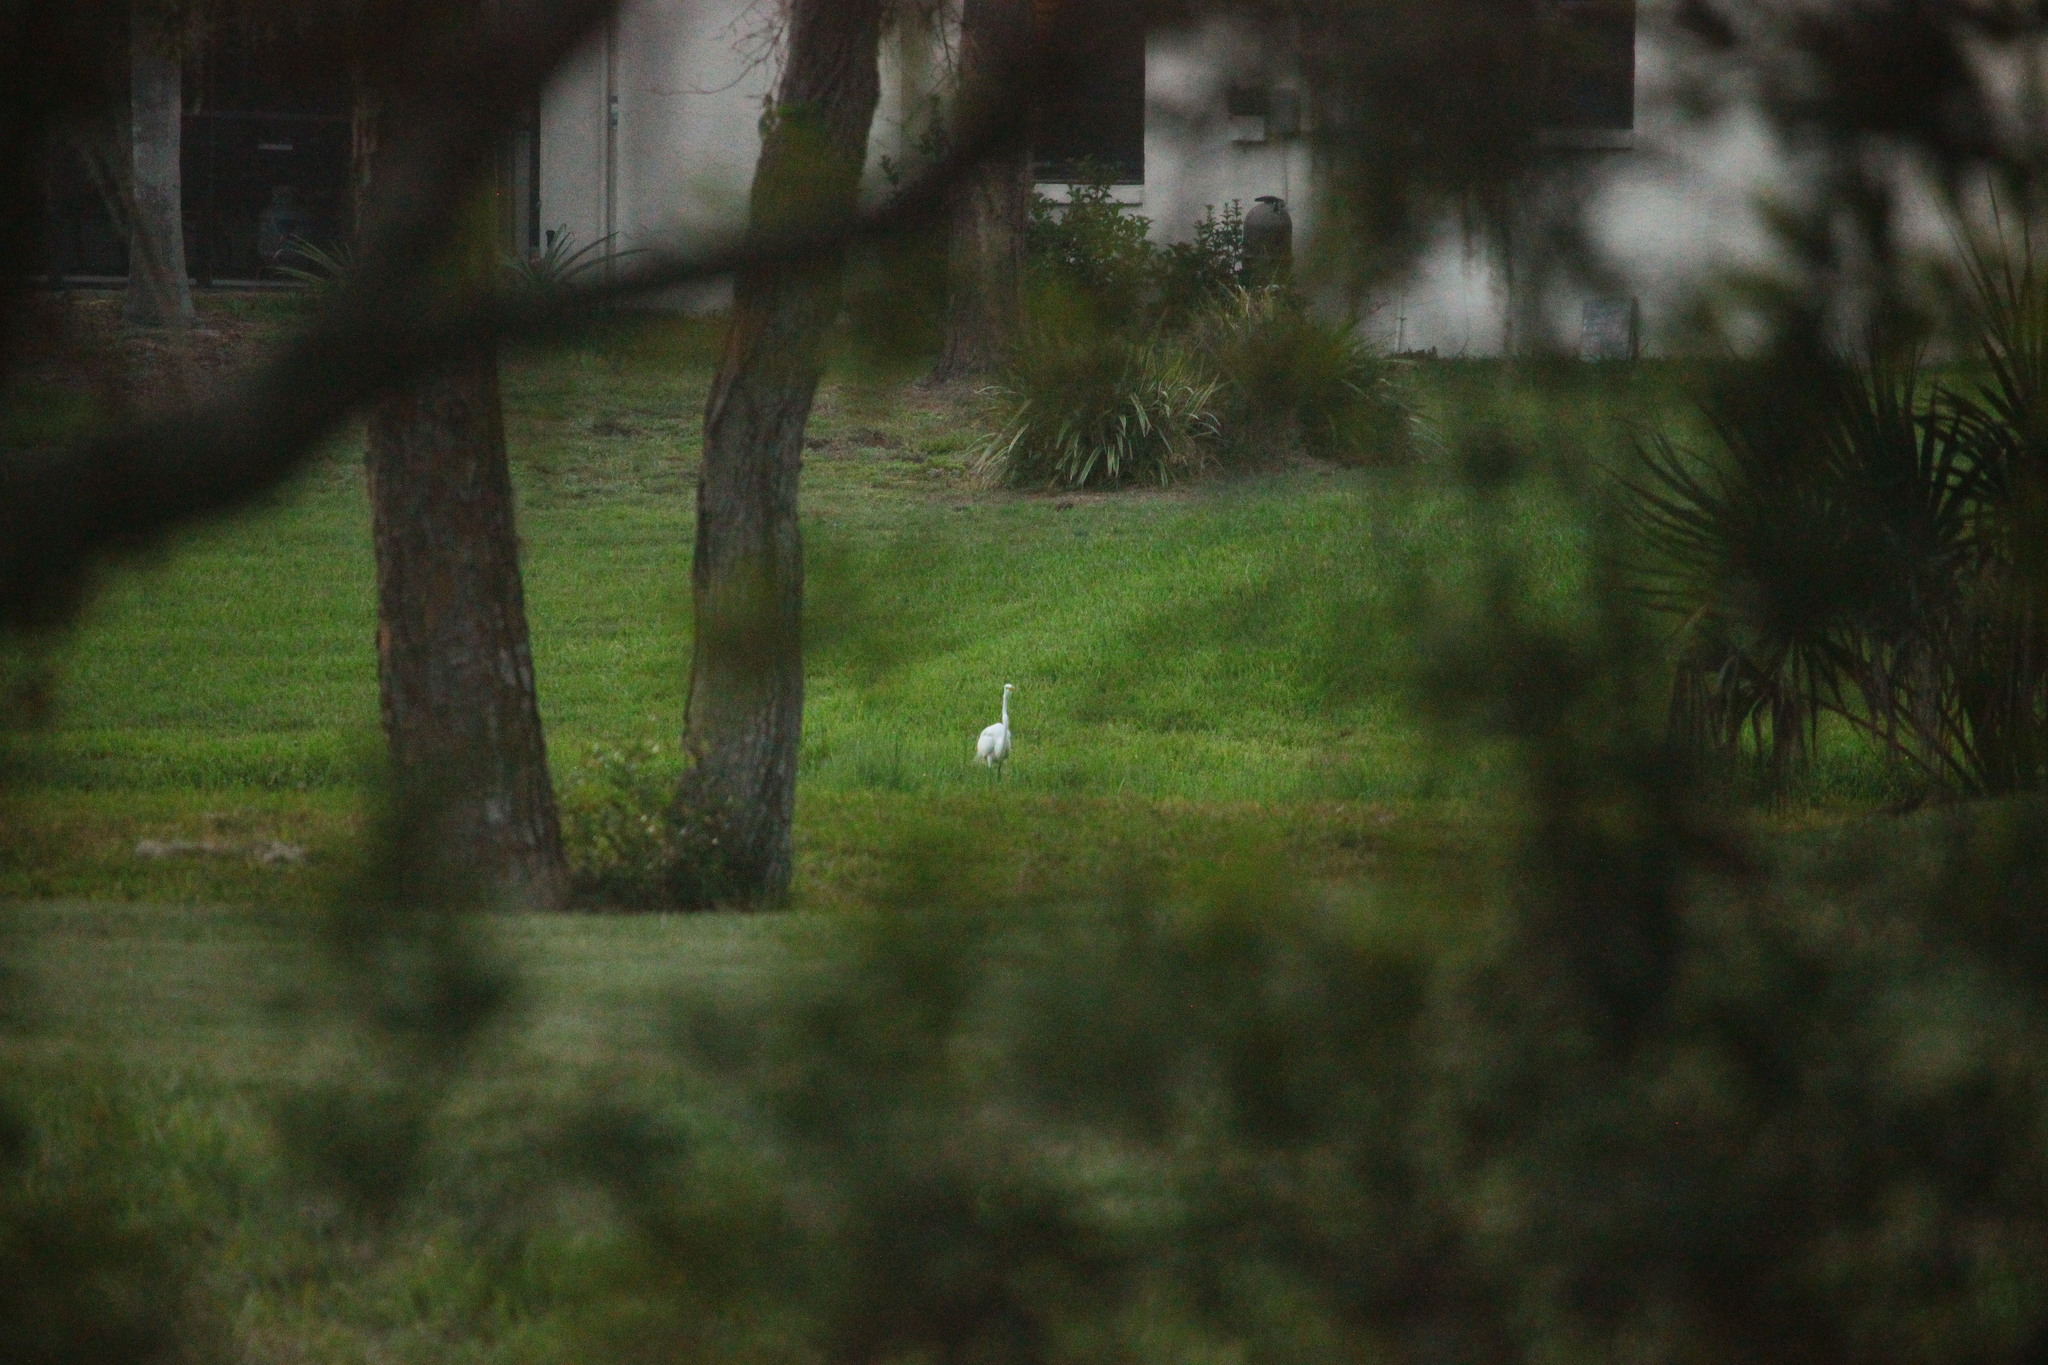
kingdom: Animalia
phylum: Chordata
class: Aves
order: Pelecaniformes
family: Ardeidae
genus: Ardea
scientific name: Ardea alba
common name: Great egret
